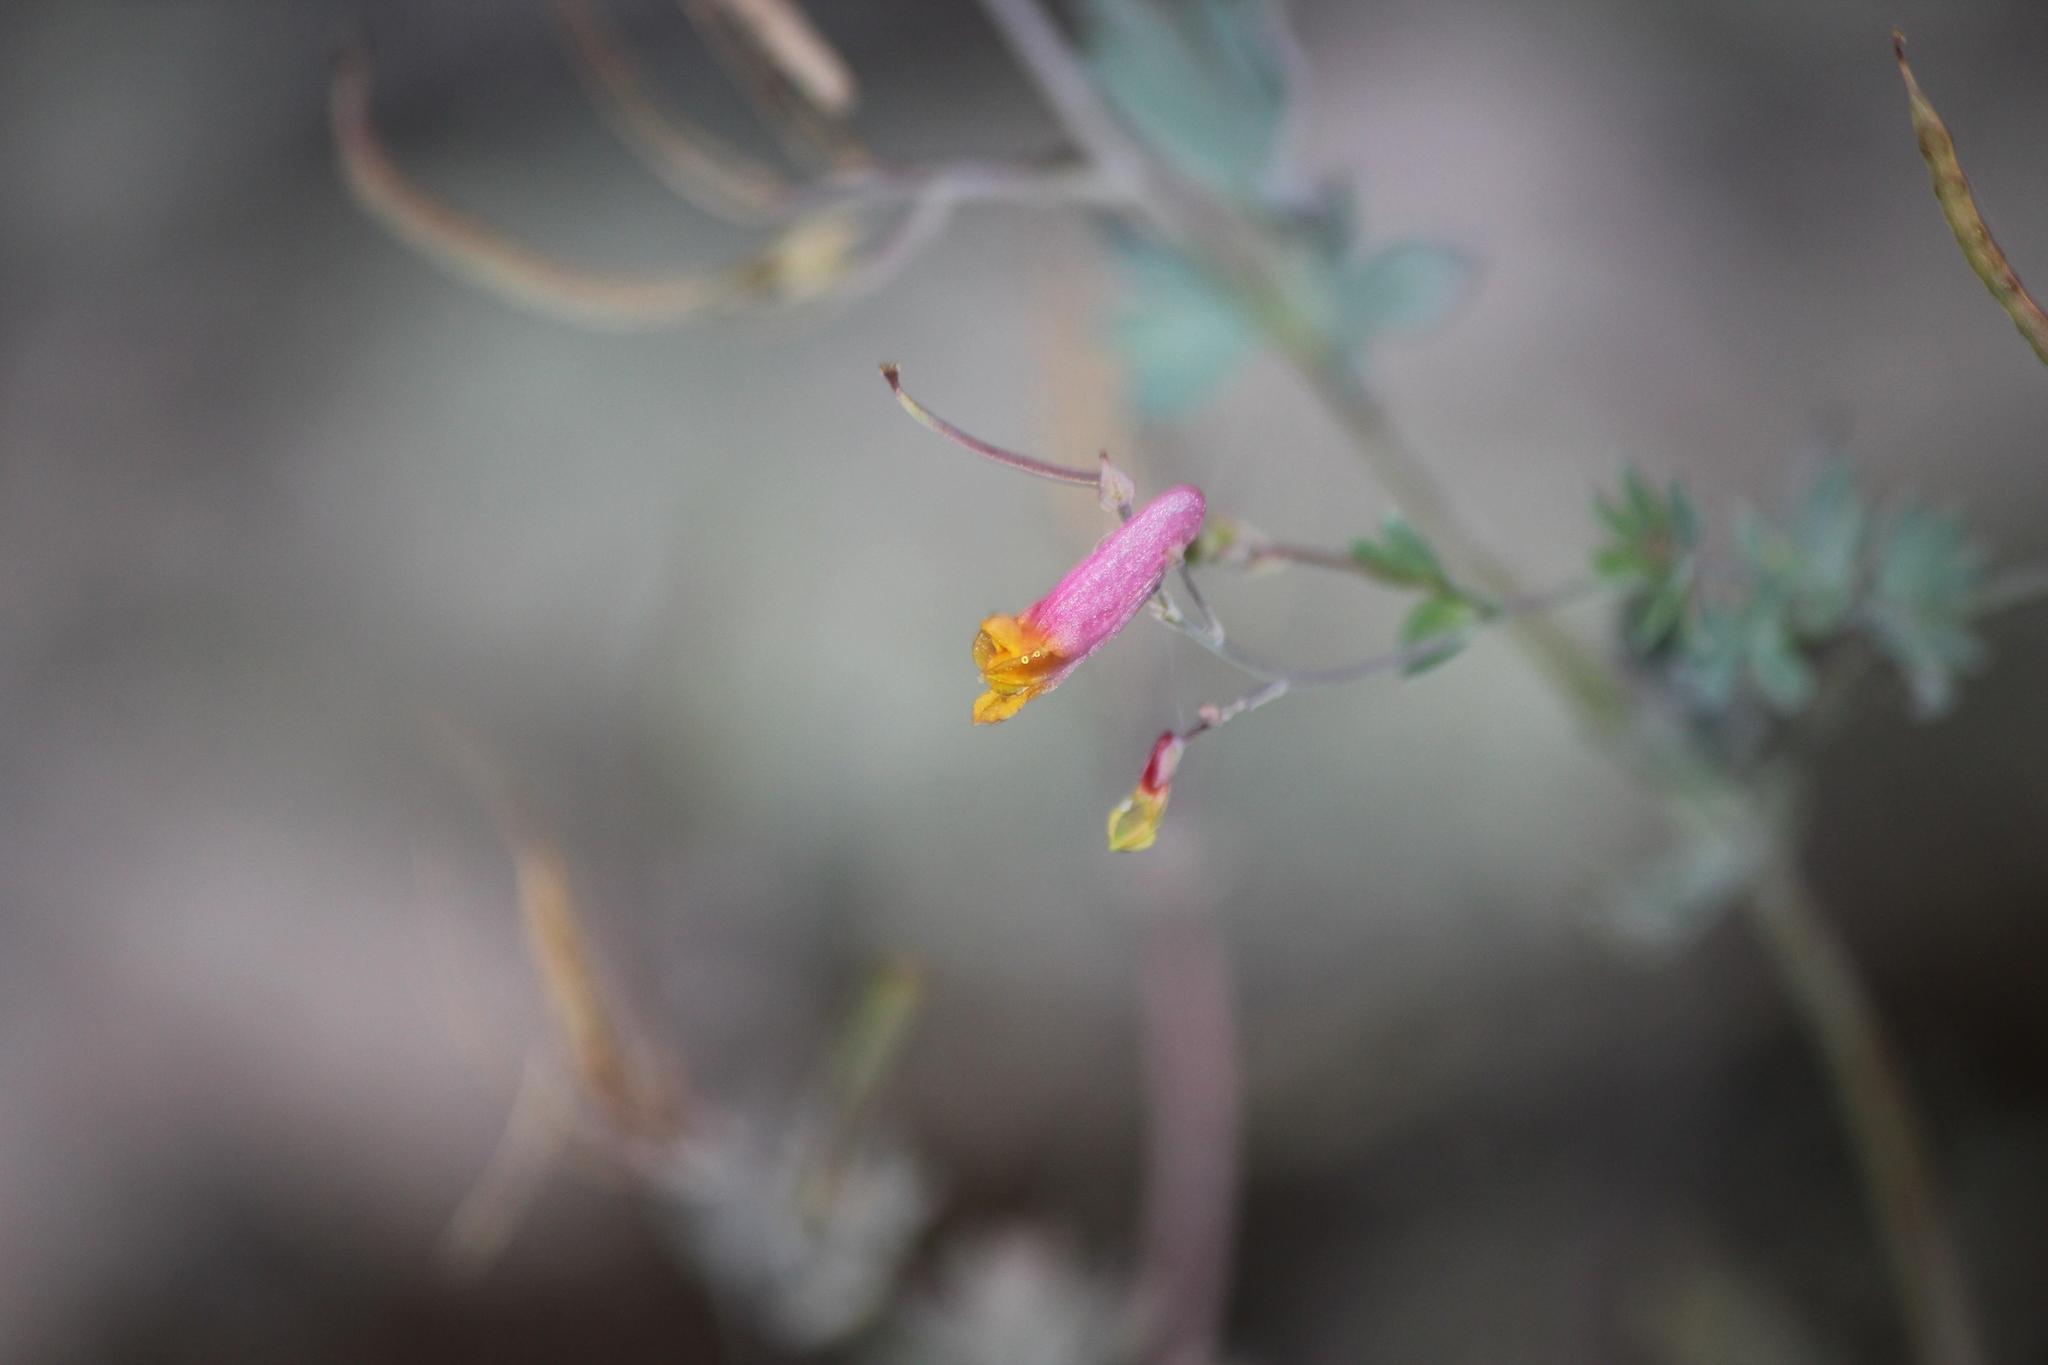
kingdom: Plantae
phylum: Tracheophyta
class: Magnoliopsida
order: Ranunculales
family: Papaveraceae
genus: Capnoides
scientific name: Capnoides sempervirens
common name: Rock harlequin
